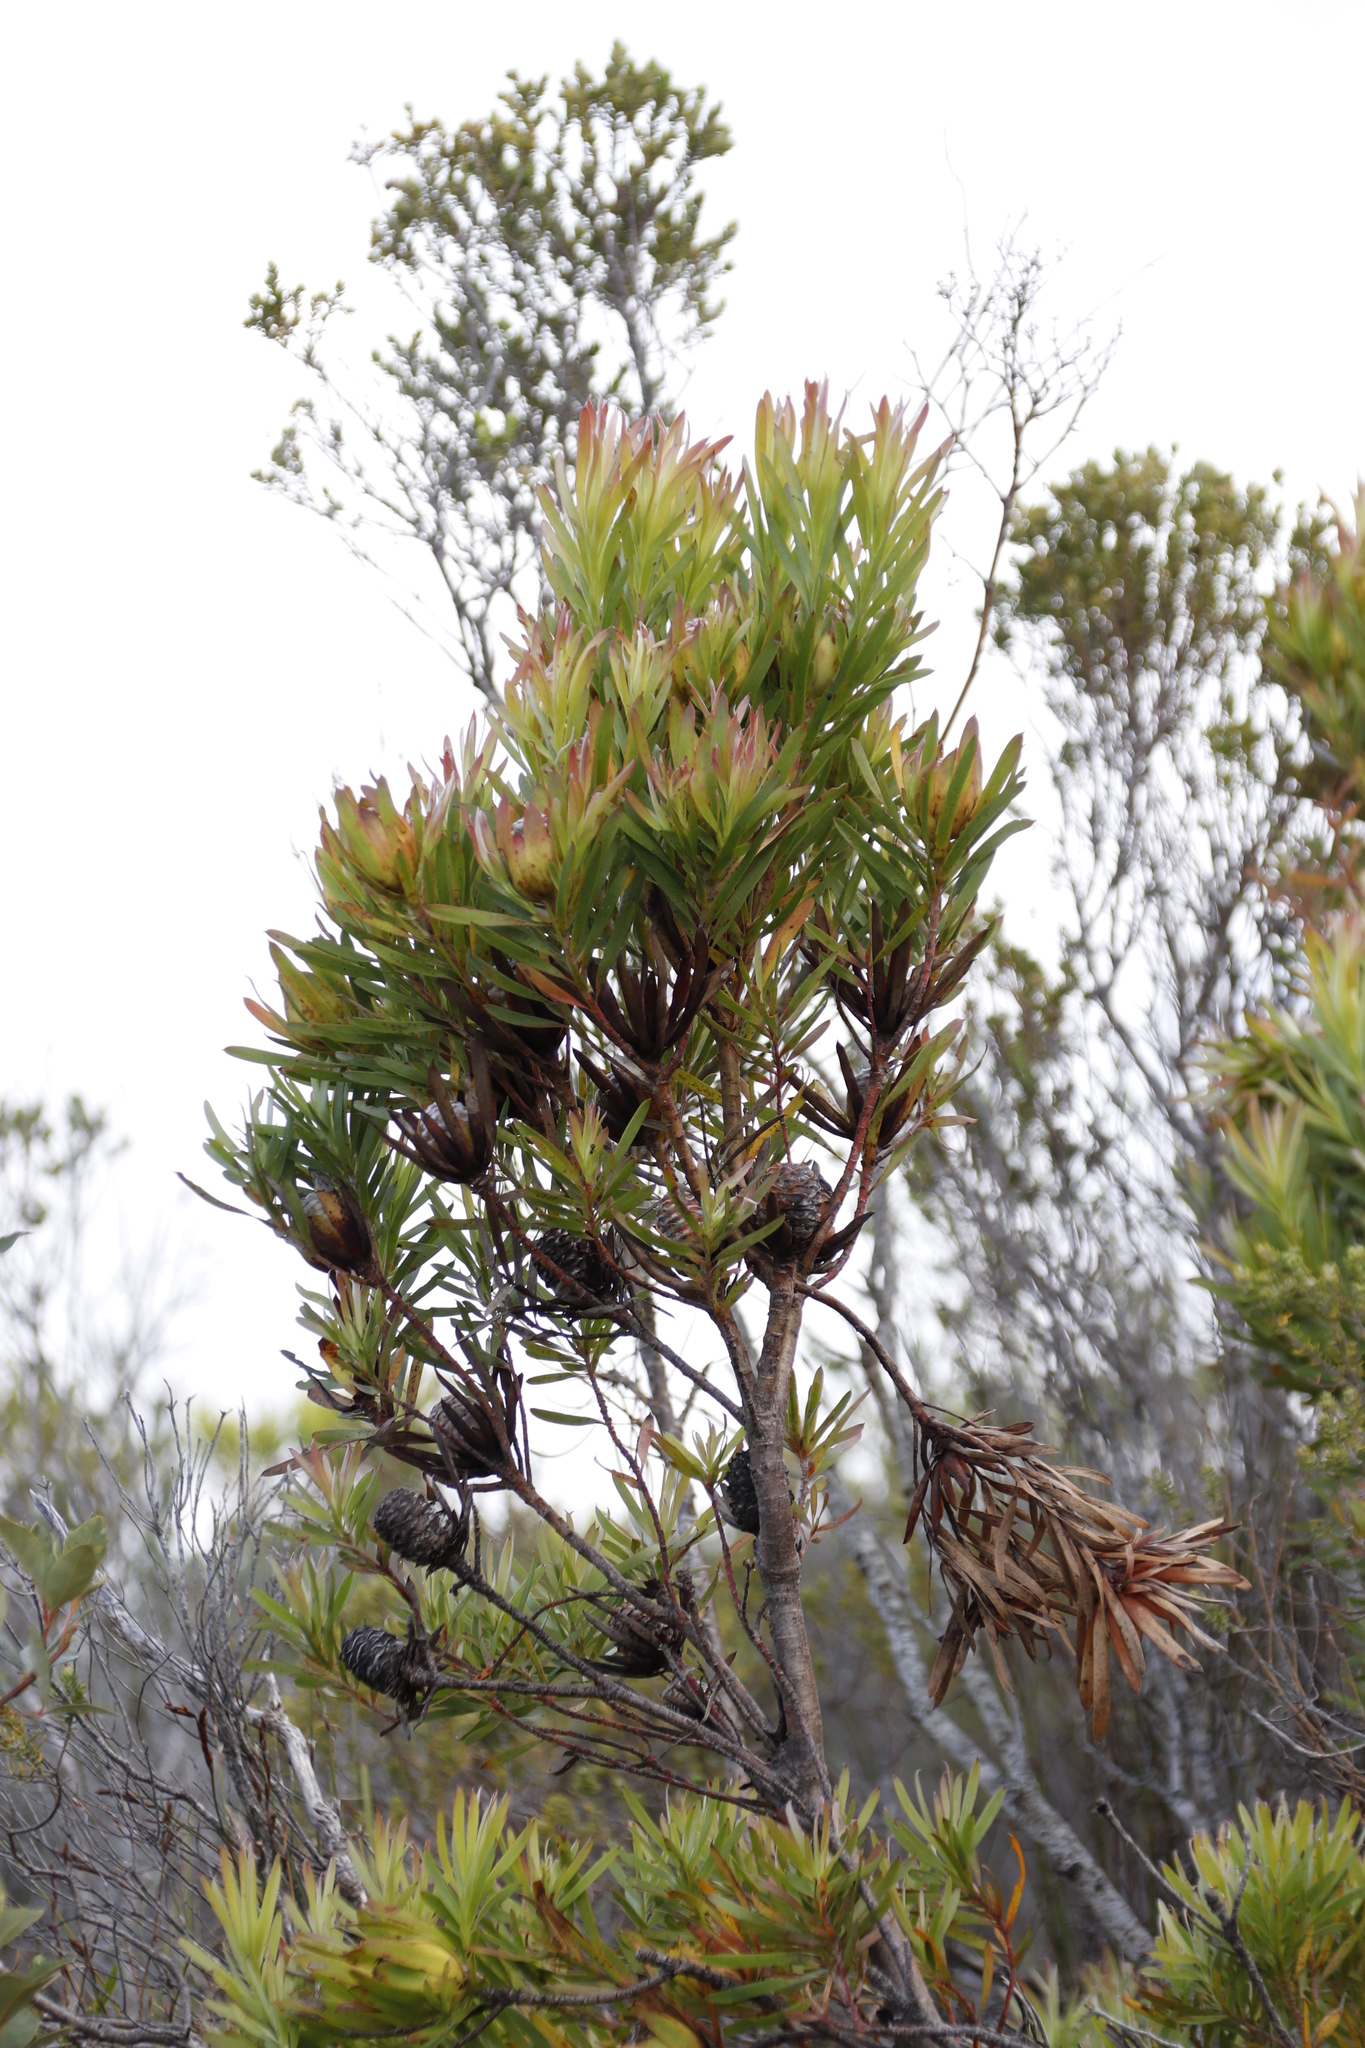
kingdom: Plantae
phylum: Tracheophyta
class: Magnoliopsida
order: Proteales
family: Proteaceae
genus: Leucadendron
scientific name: Leucadendron xanthoconus
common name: Sickle-leaf conebush
